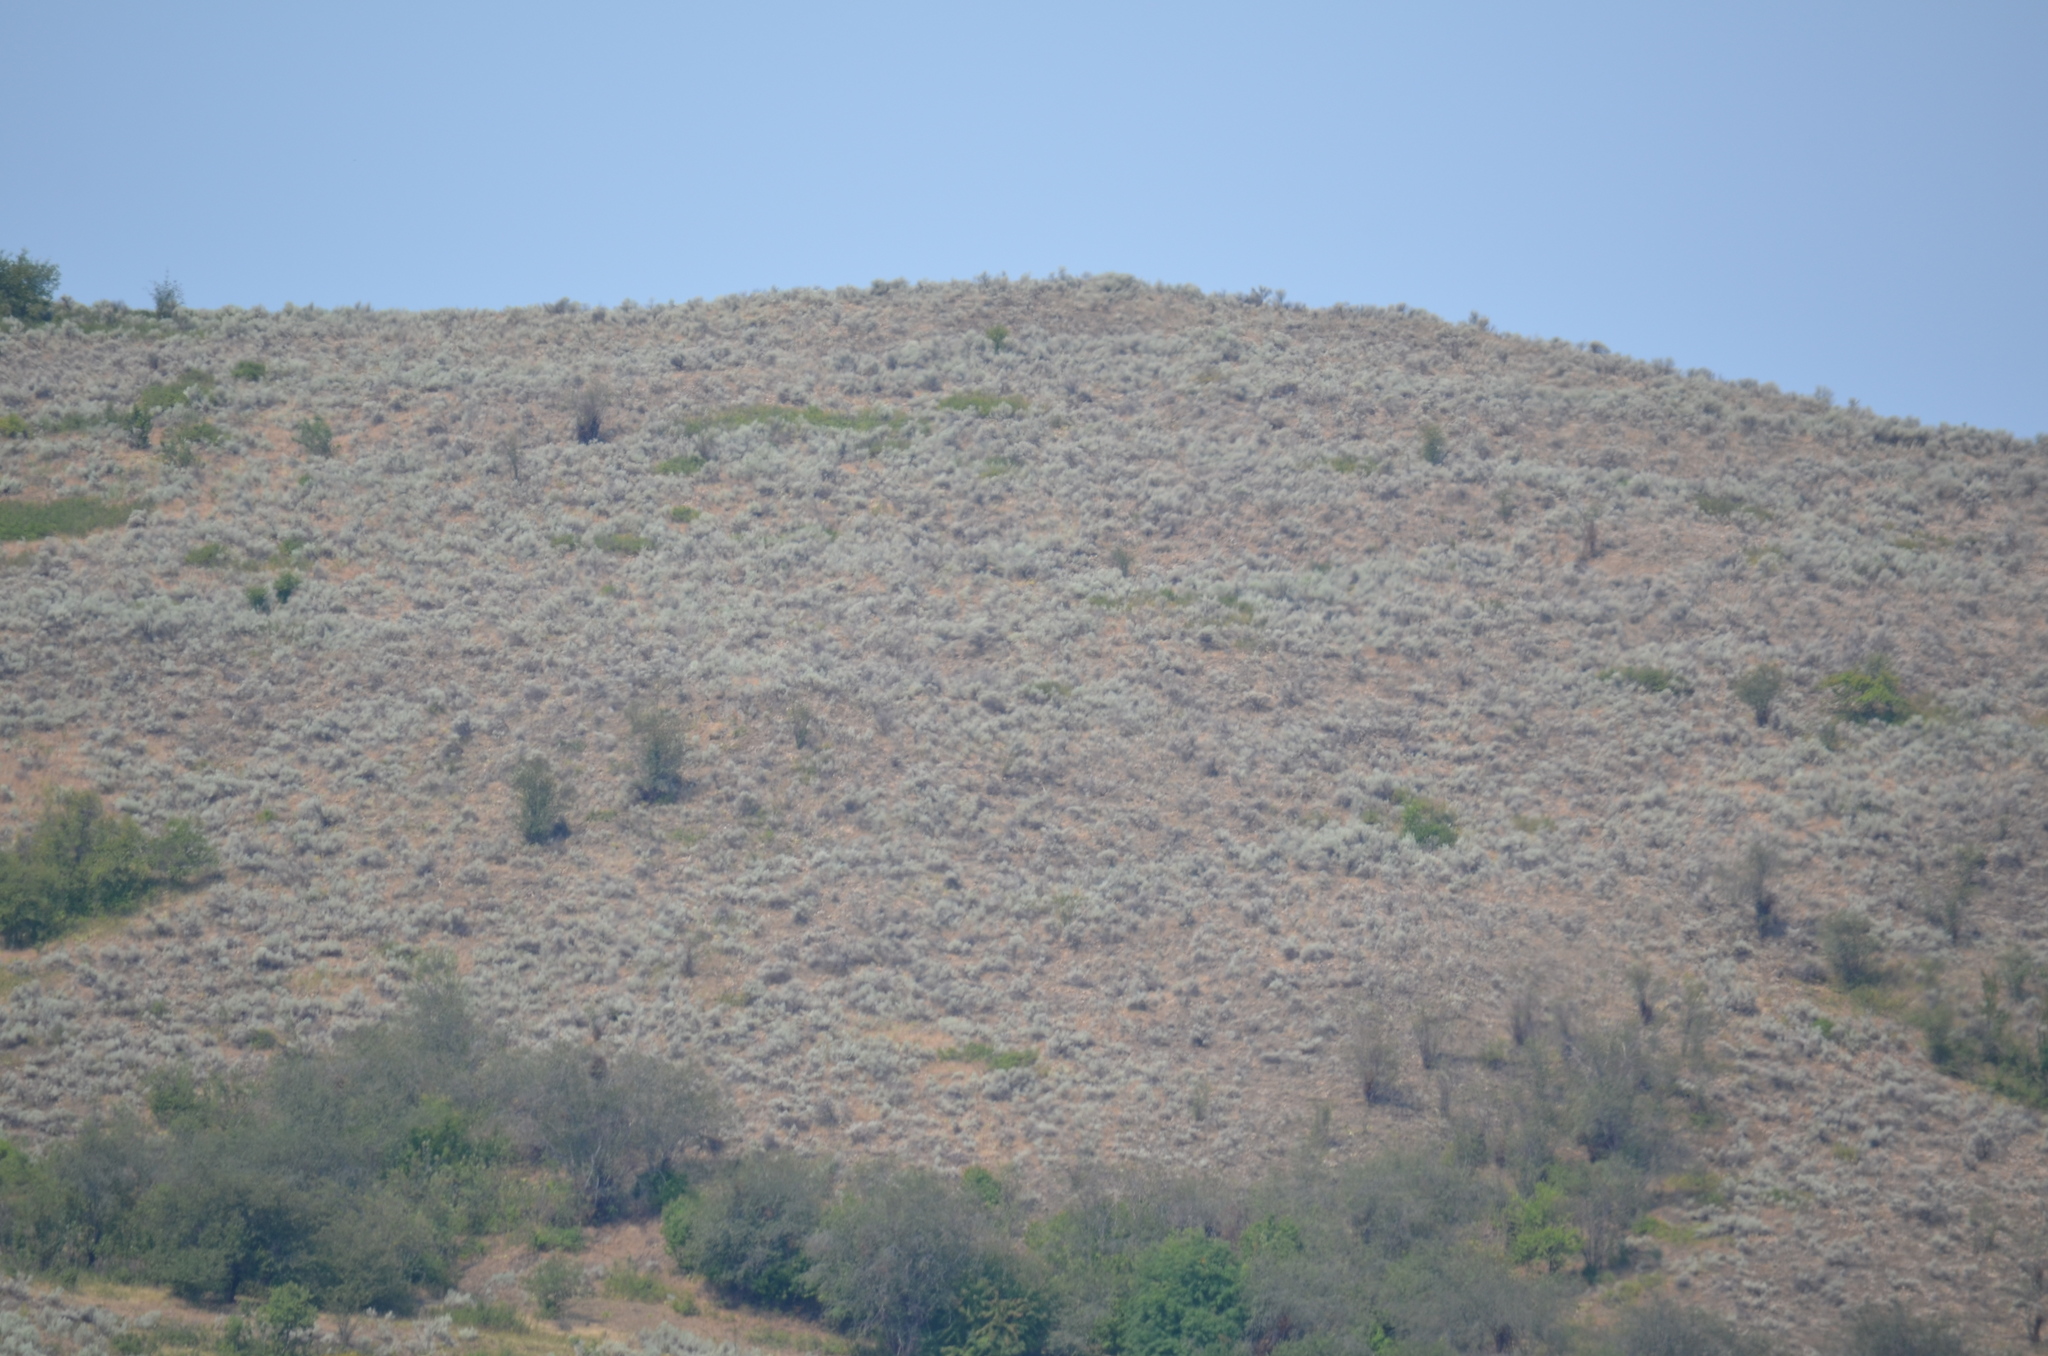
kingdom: Plantae
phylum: Tracheophyta
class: Magnoliopsida
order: Asterales
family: Asteraceae
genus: Artemisia
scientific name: Artemisia tridentata
